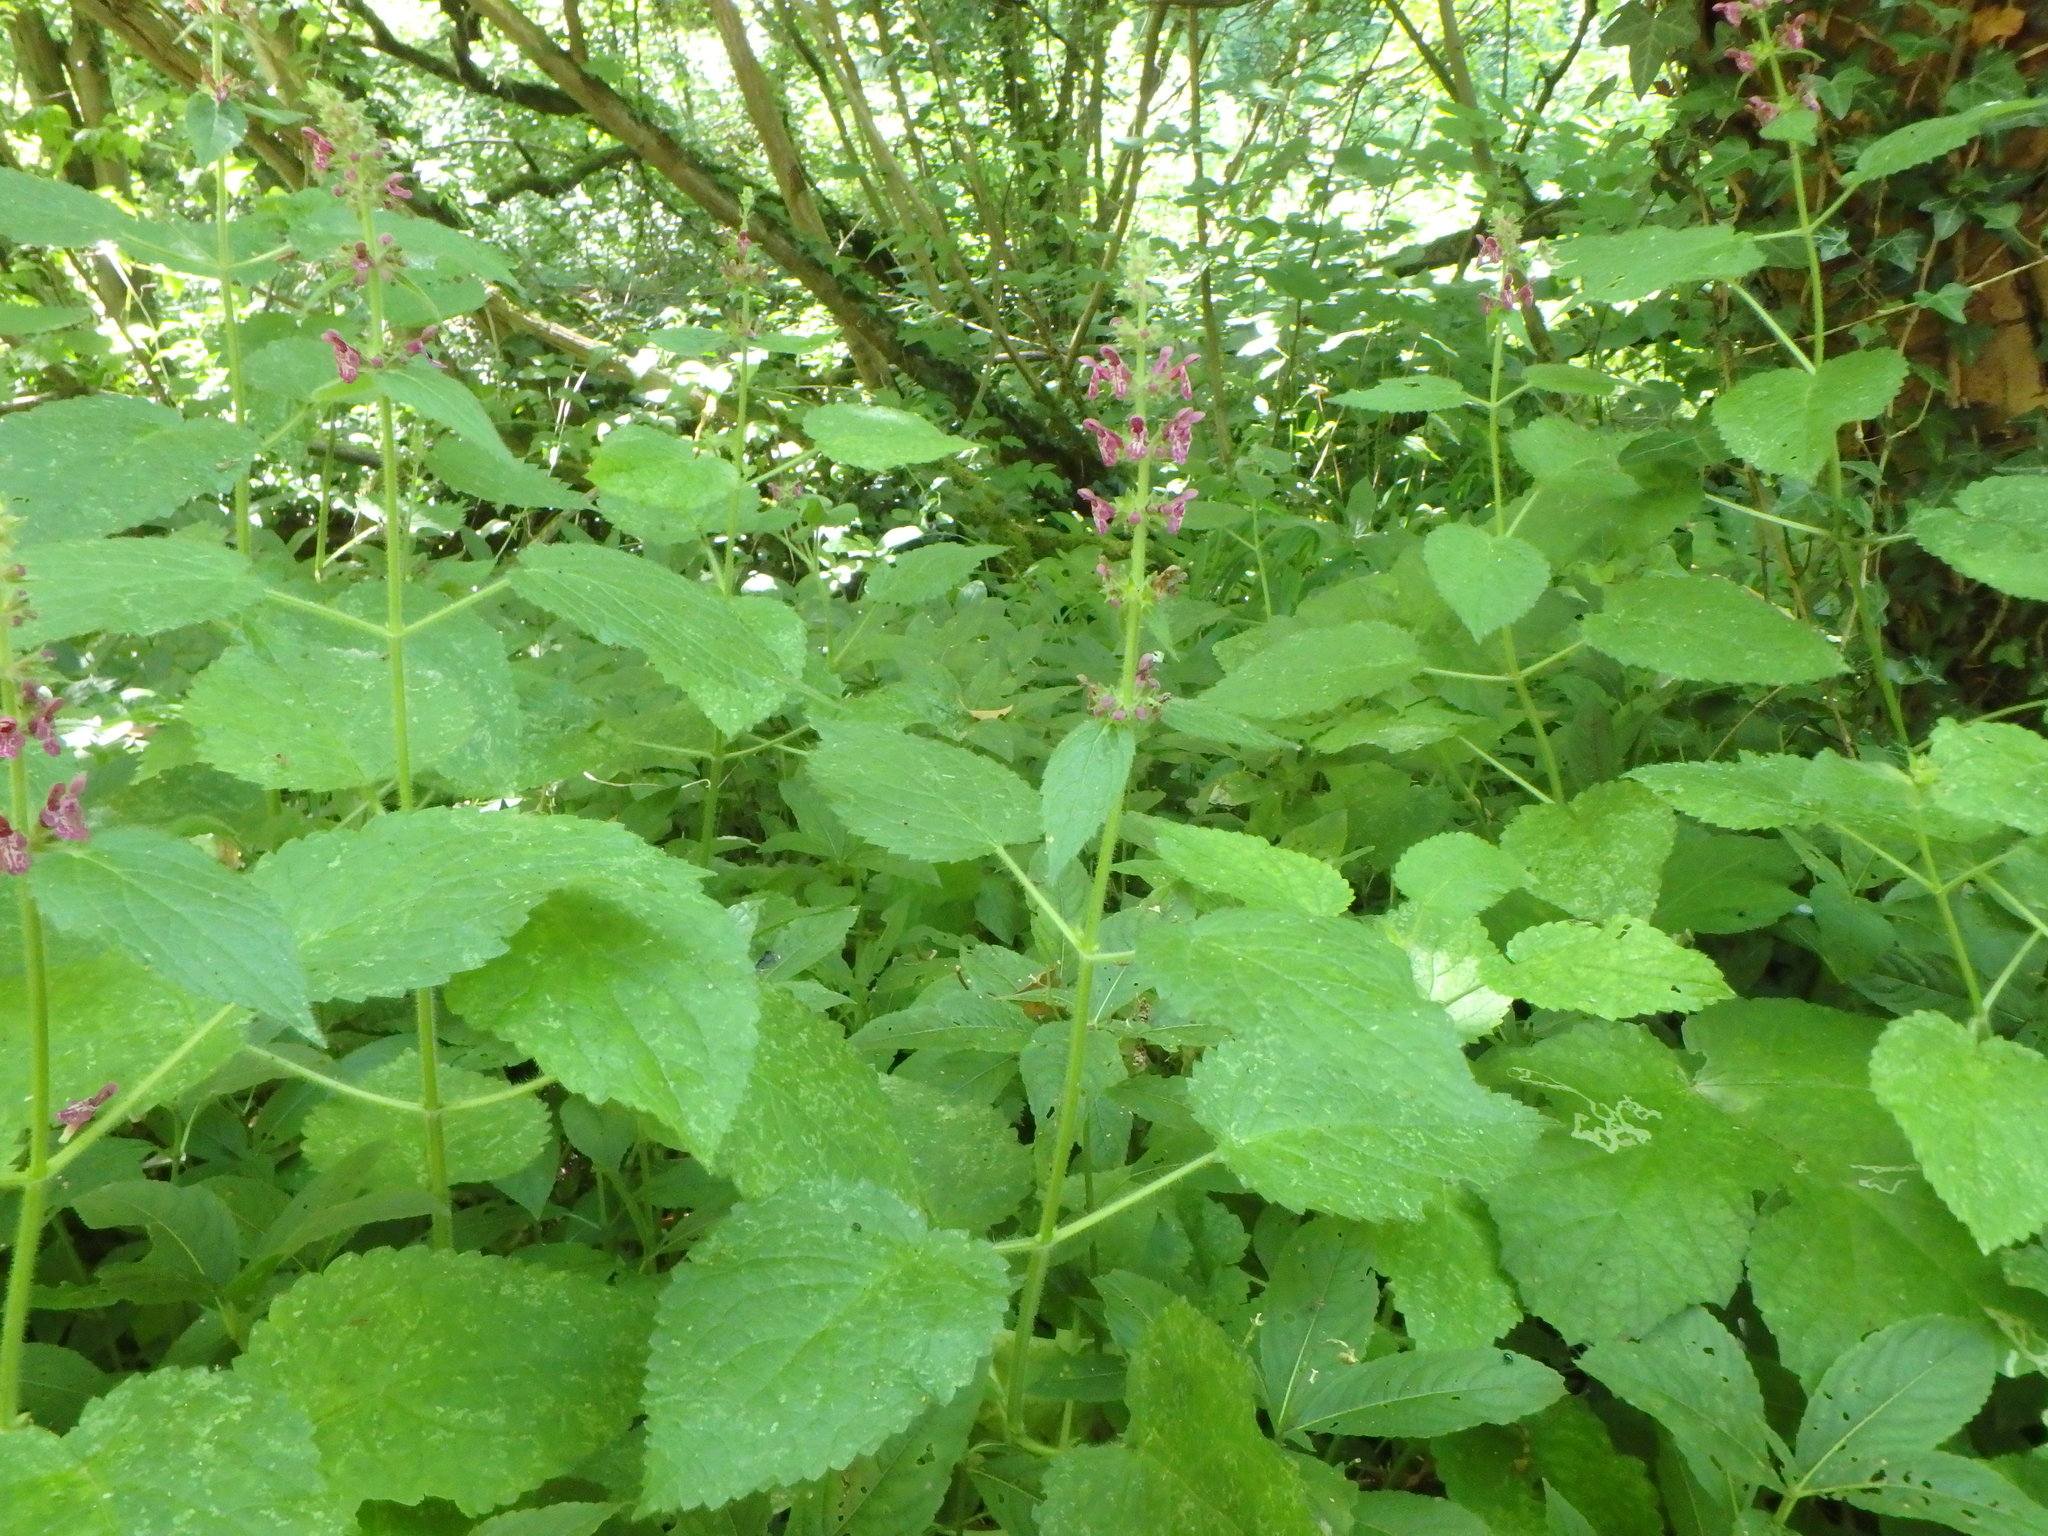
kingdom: Plantae
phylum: Tracheophyta
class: Magnoliopsida
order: Lamiales
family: Lamiaceae
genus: Stachys
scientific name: Stachys sylvatica
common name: Hedge woundwort
